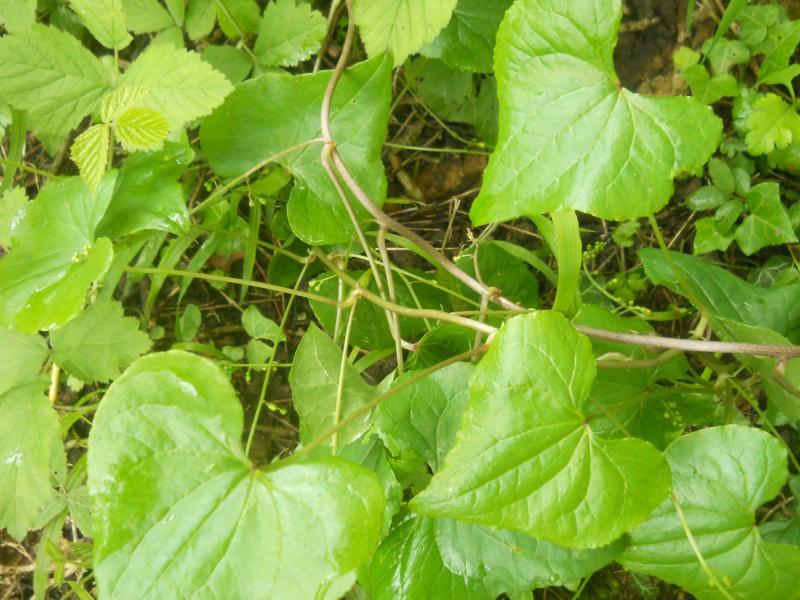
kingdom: Plantae
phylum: Tracheophyta
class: Liliopsida
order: Dioscoreales
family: Dioscoreaceae
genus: Dioscorea
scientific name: Dioscorea communis
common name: Black-bindweed
